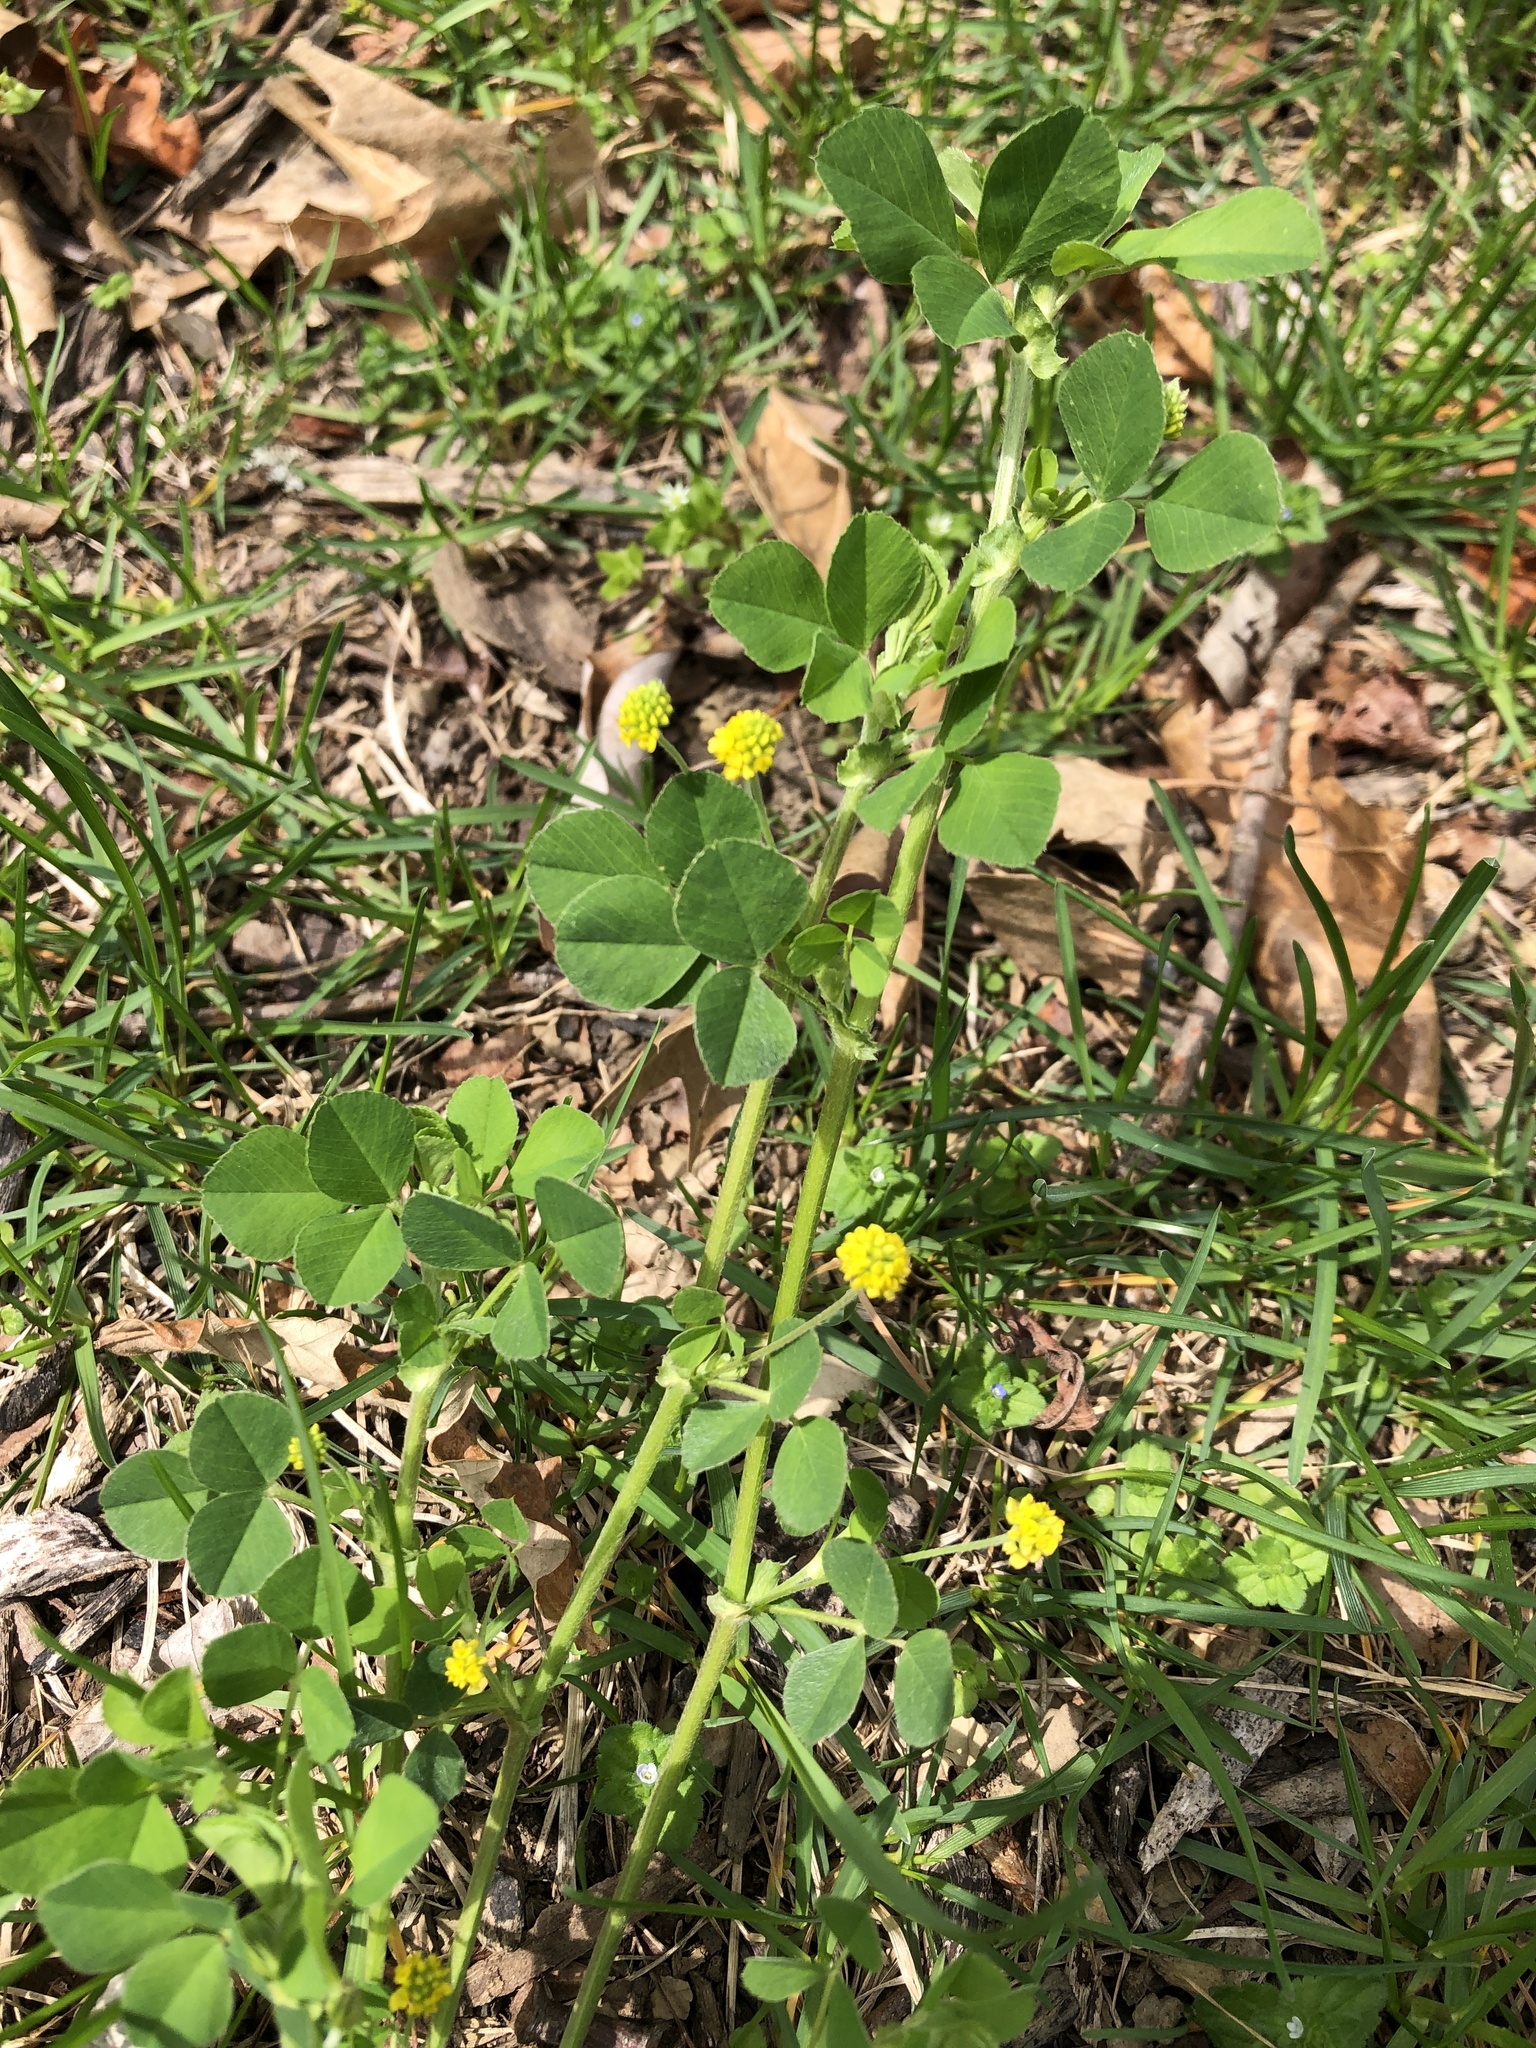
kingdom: Plantae
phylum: Tracheophyta
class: Magnoliopsida
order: Fabales
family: Fabaceae
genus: Medicago
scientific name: Medicago lupulina
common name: Black medick
